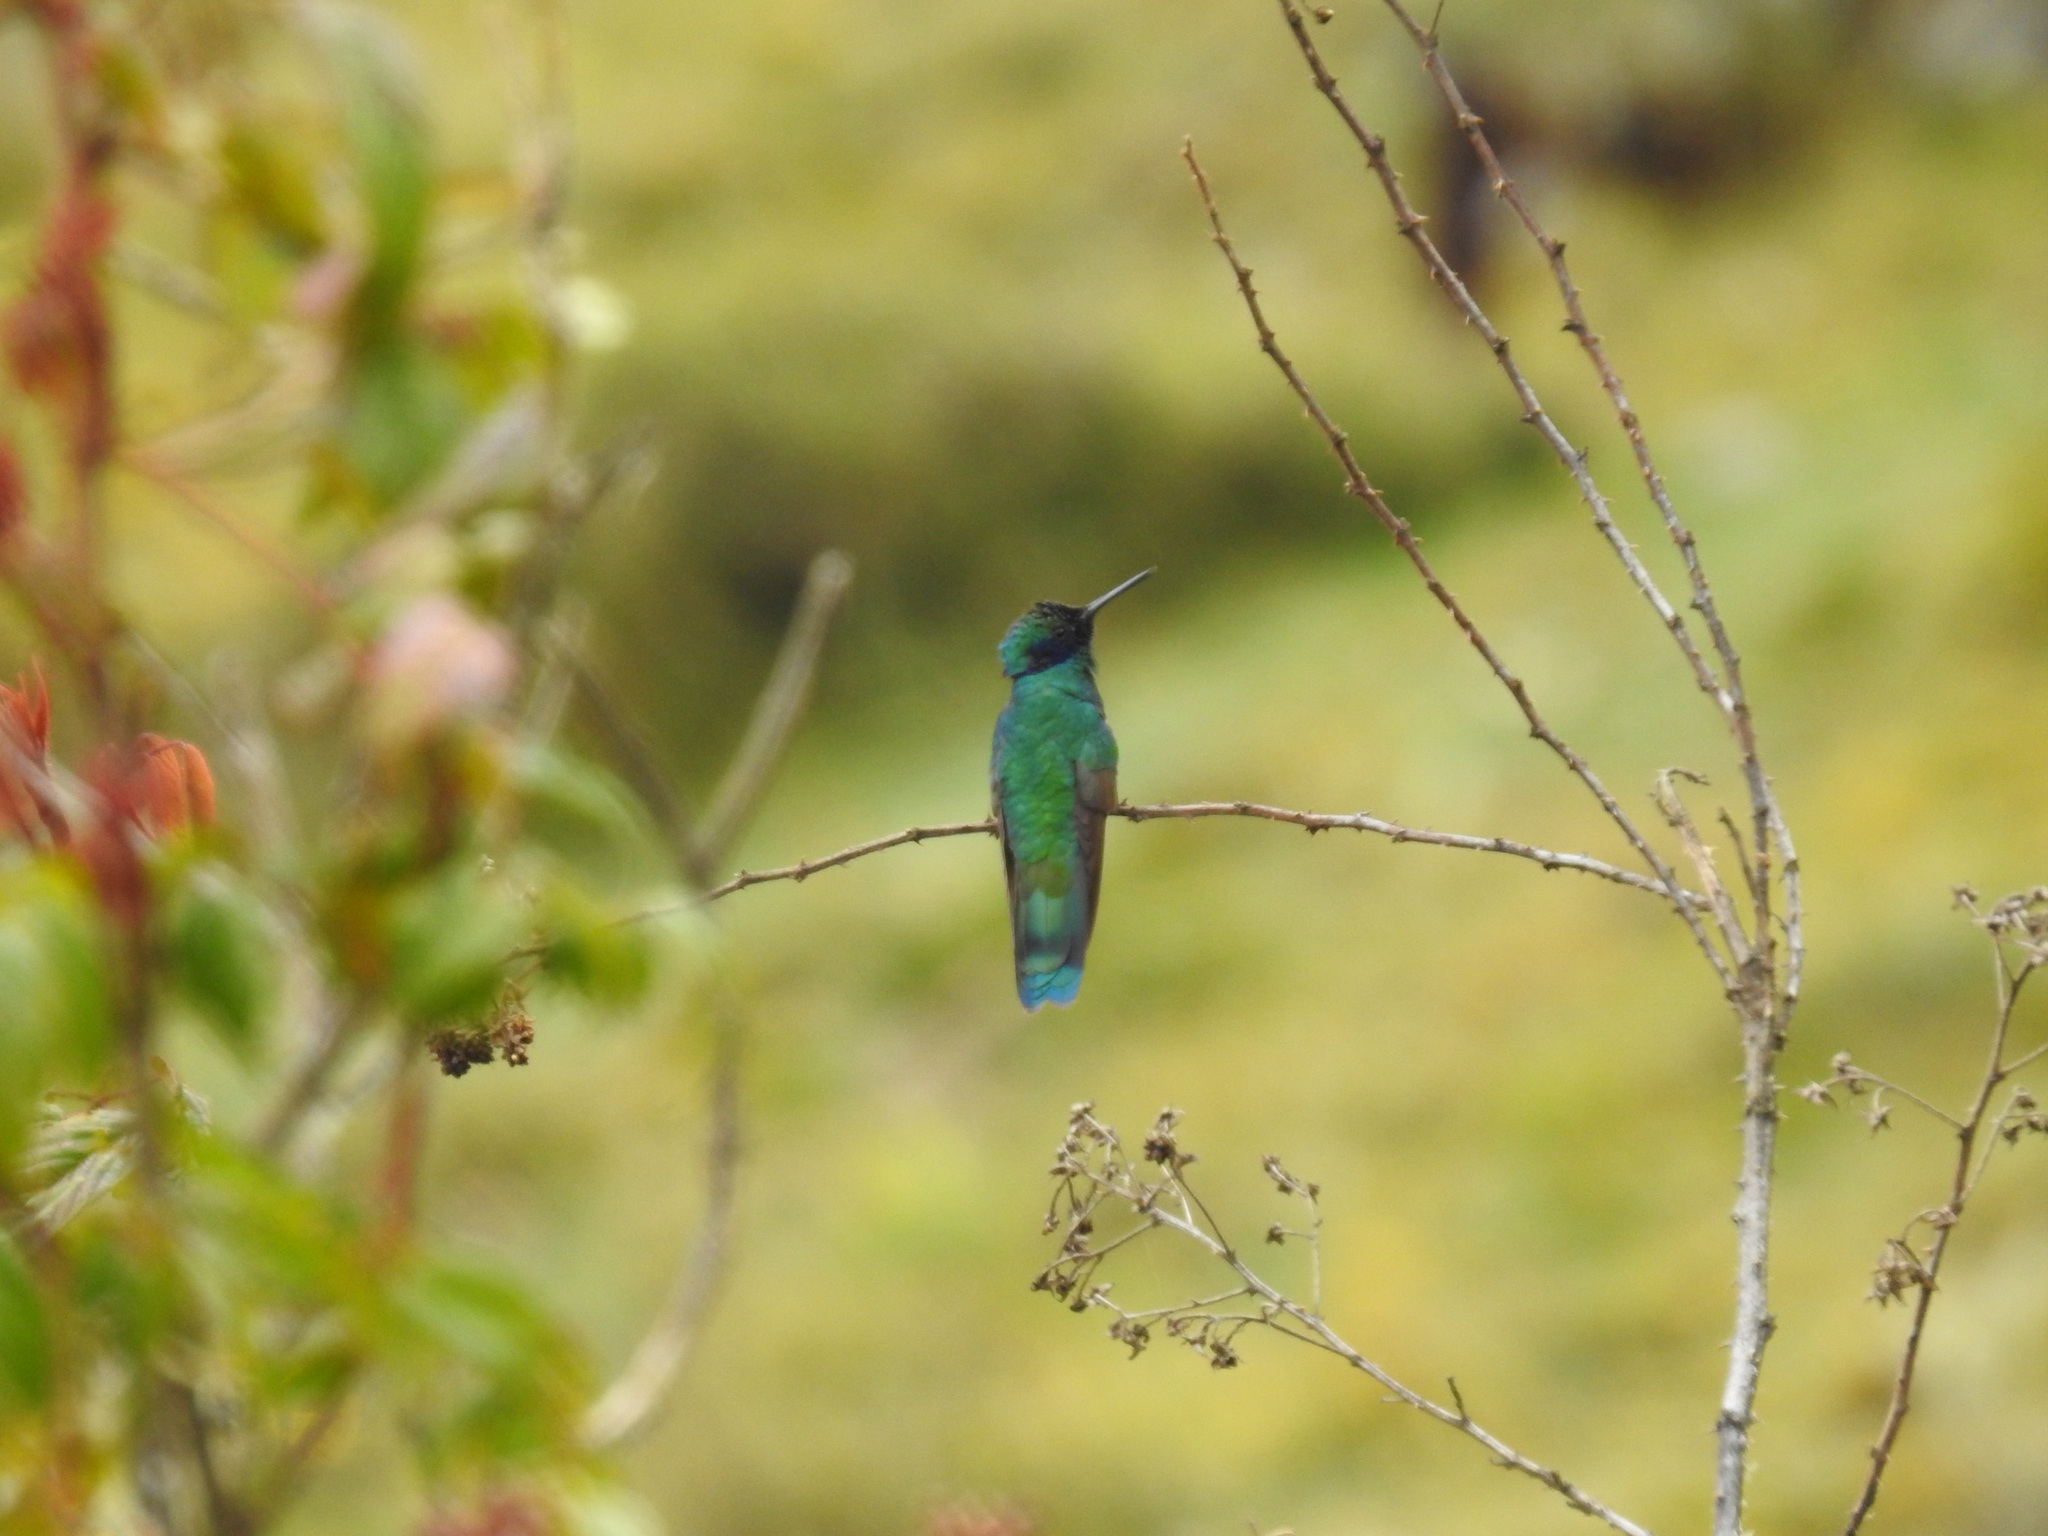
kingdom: Animalia
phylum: Chordata
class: Aves
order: Apodiformes
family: Trochilidae
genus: Colibri
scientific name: Colibri coruscans
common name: Sparkling violetear
